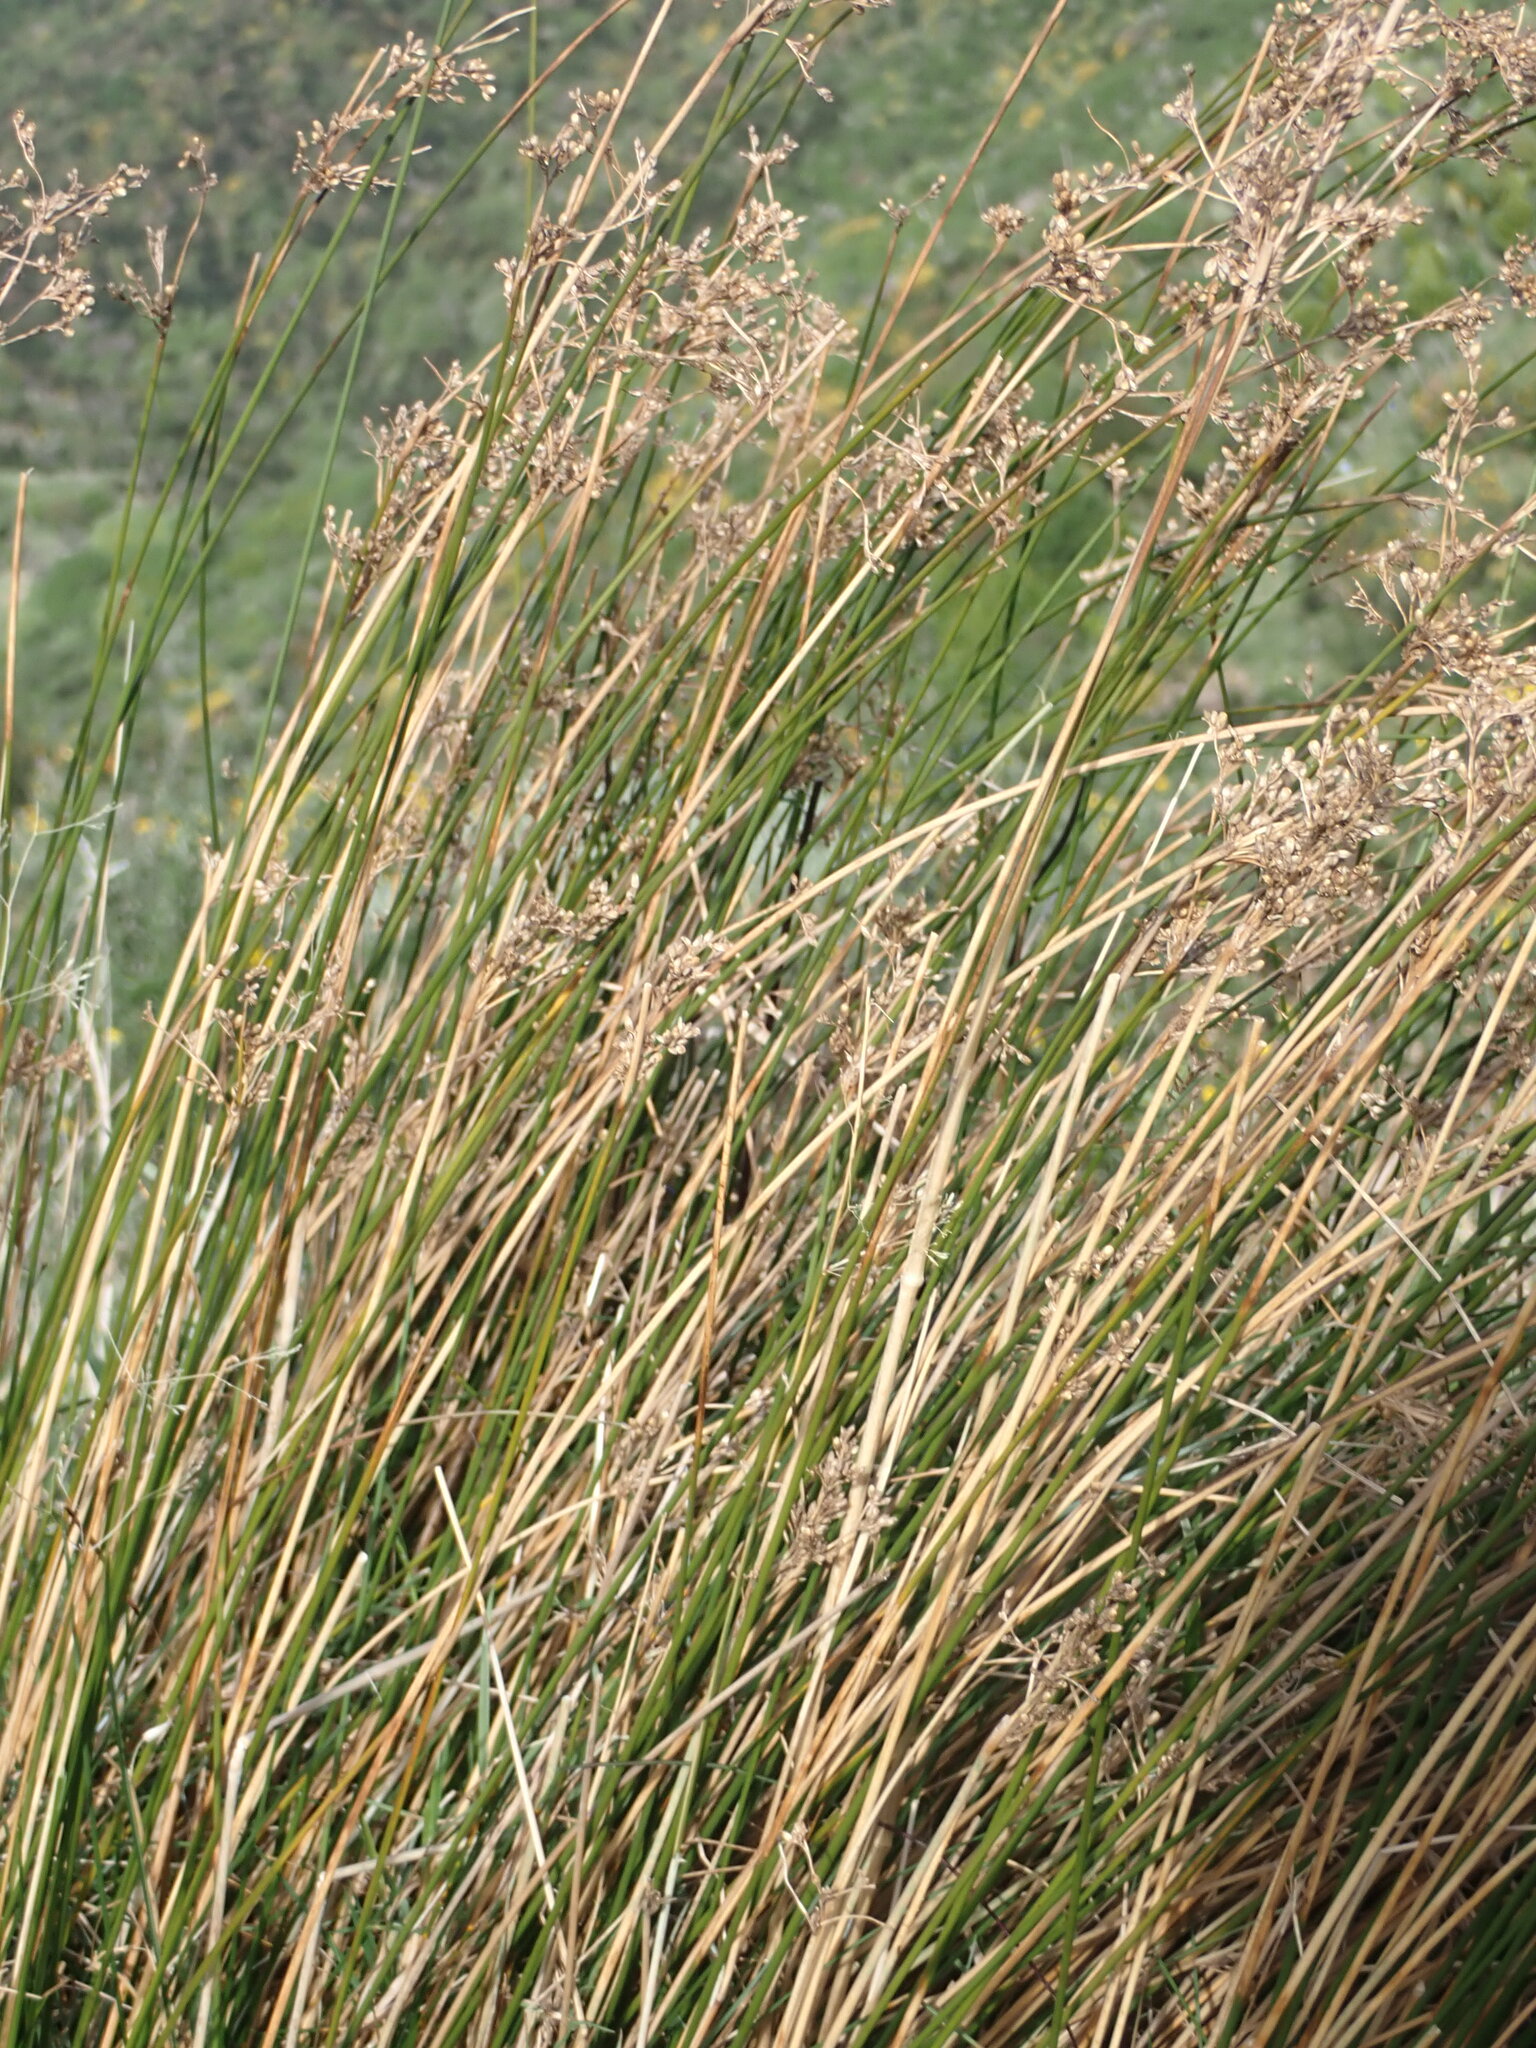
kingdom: Plantae
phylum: Tracheophyta
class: Liliopsida
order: Poales
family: Juncaceae
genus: Juncus
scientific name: Juncus edgariae
